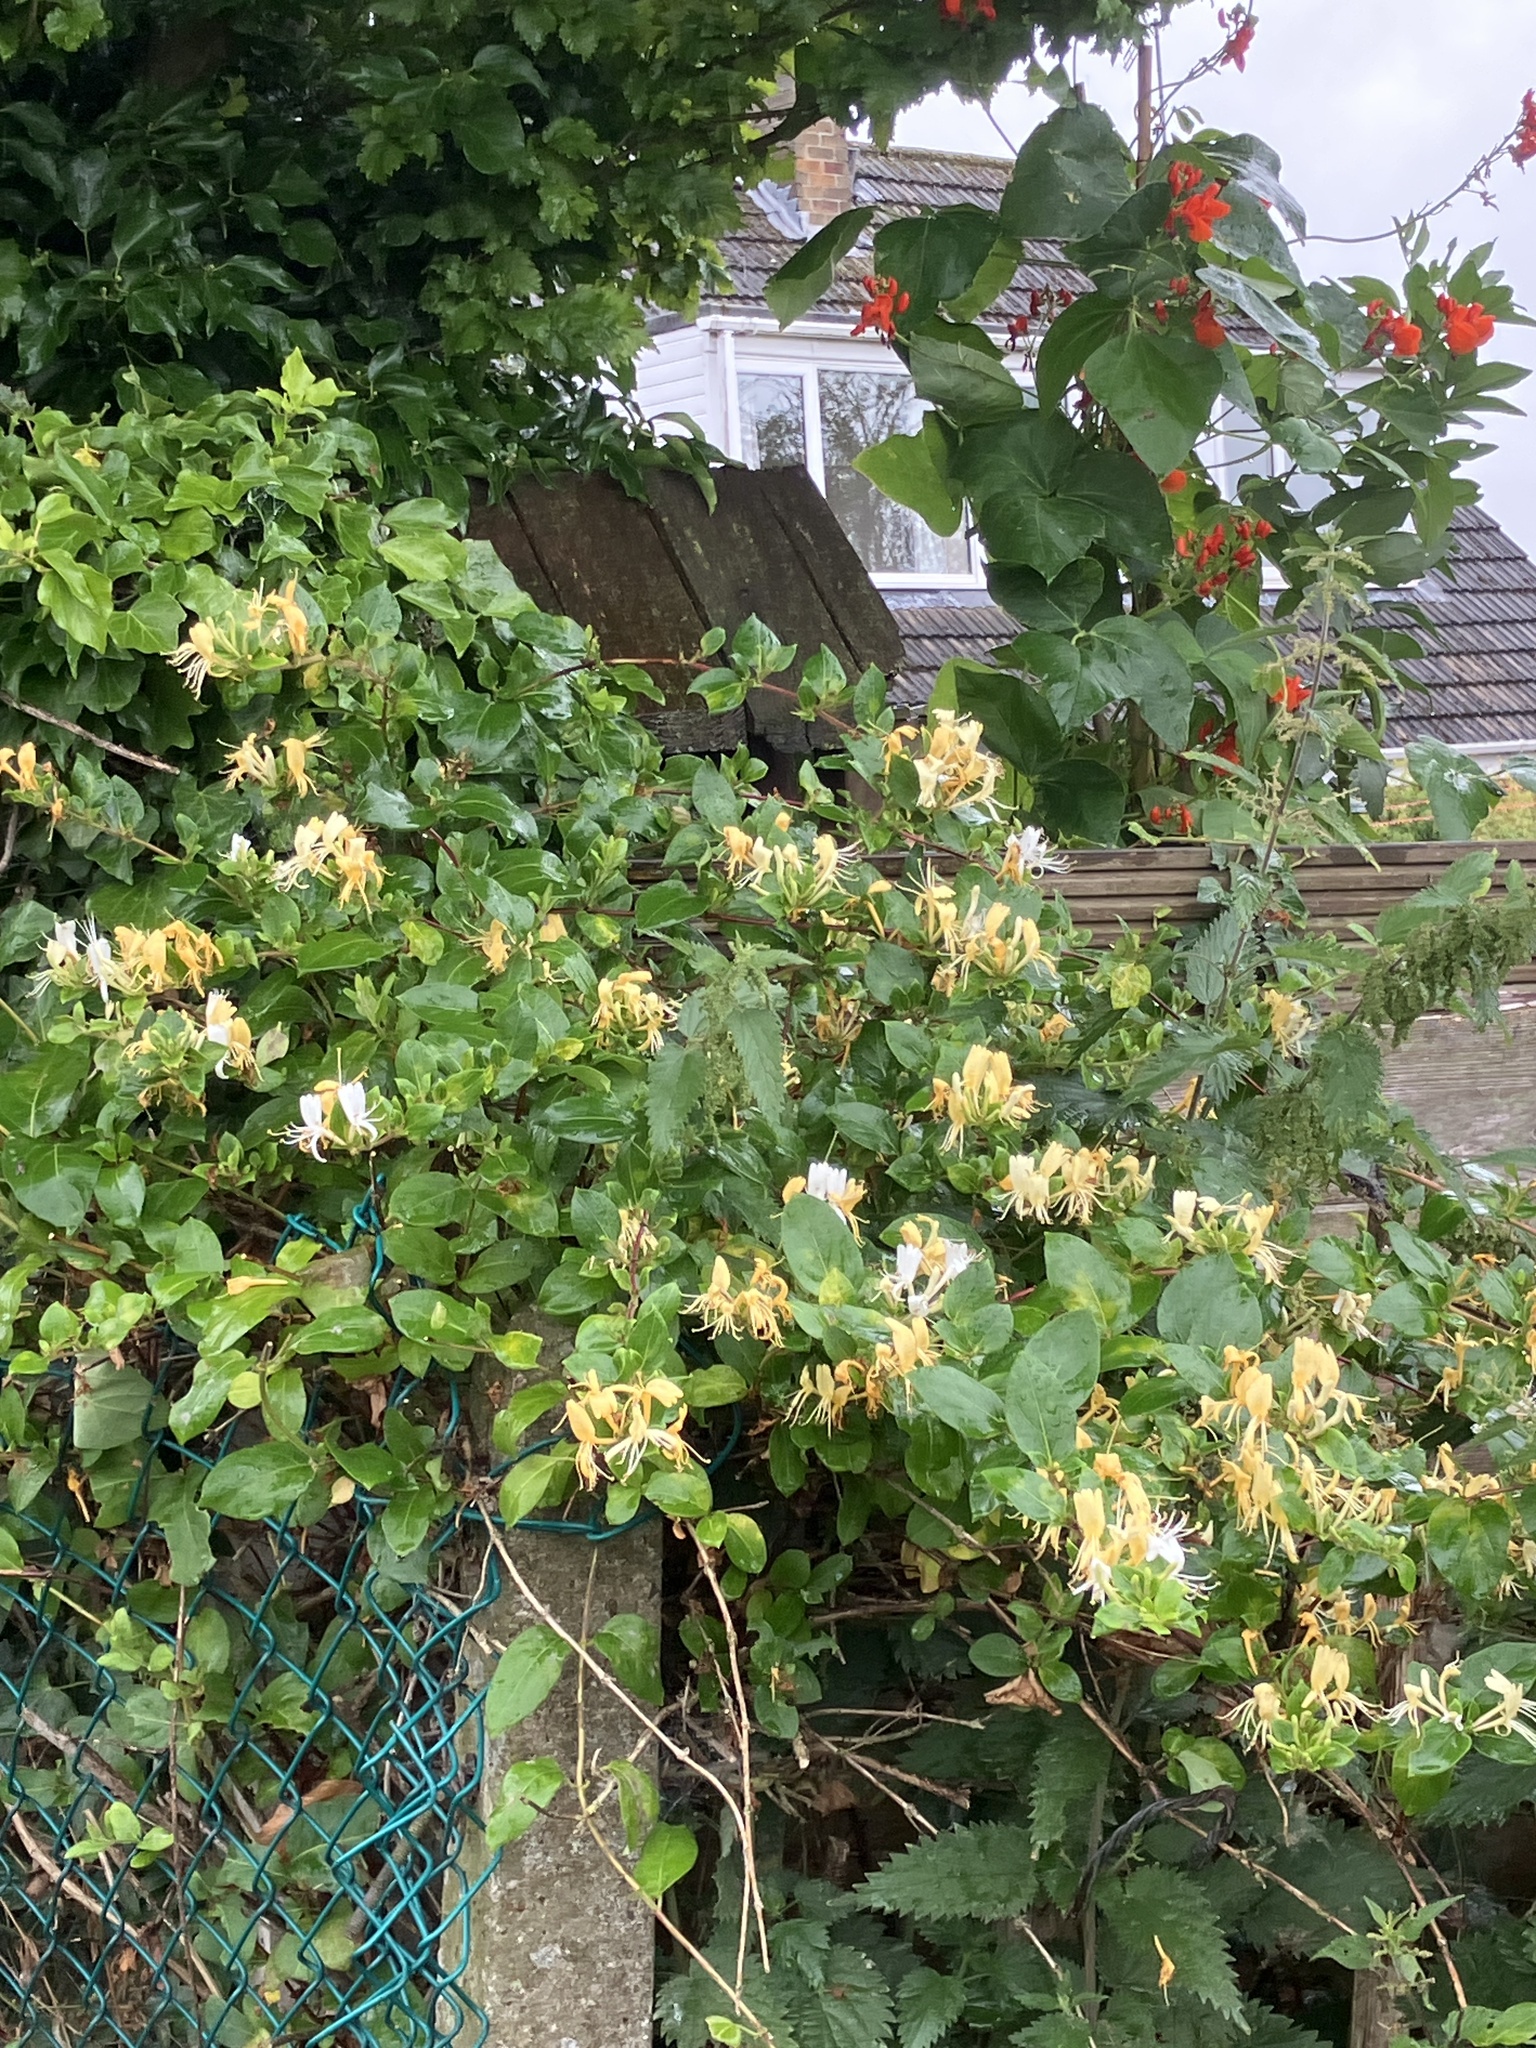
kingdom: Plantae
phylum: Tracheophyta
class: Magnoliopsida
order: Dipsacales
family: Caprifoliaceae
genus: Lonicera
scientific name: Lonicera japonica
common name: Japanese honeysuckle
